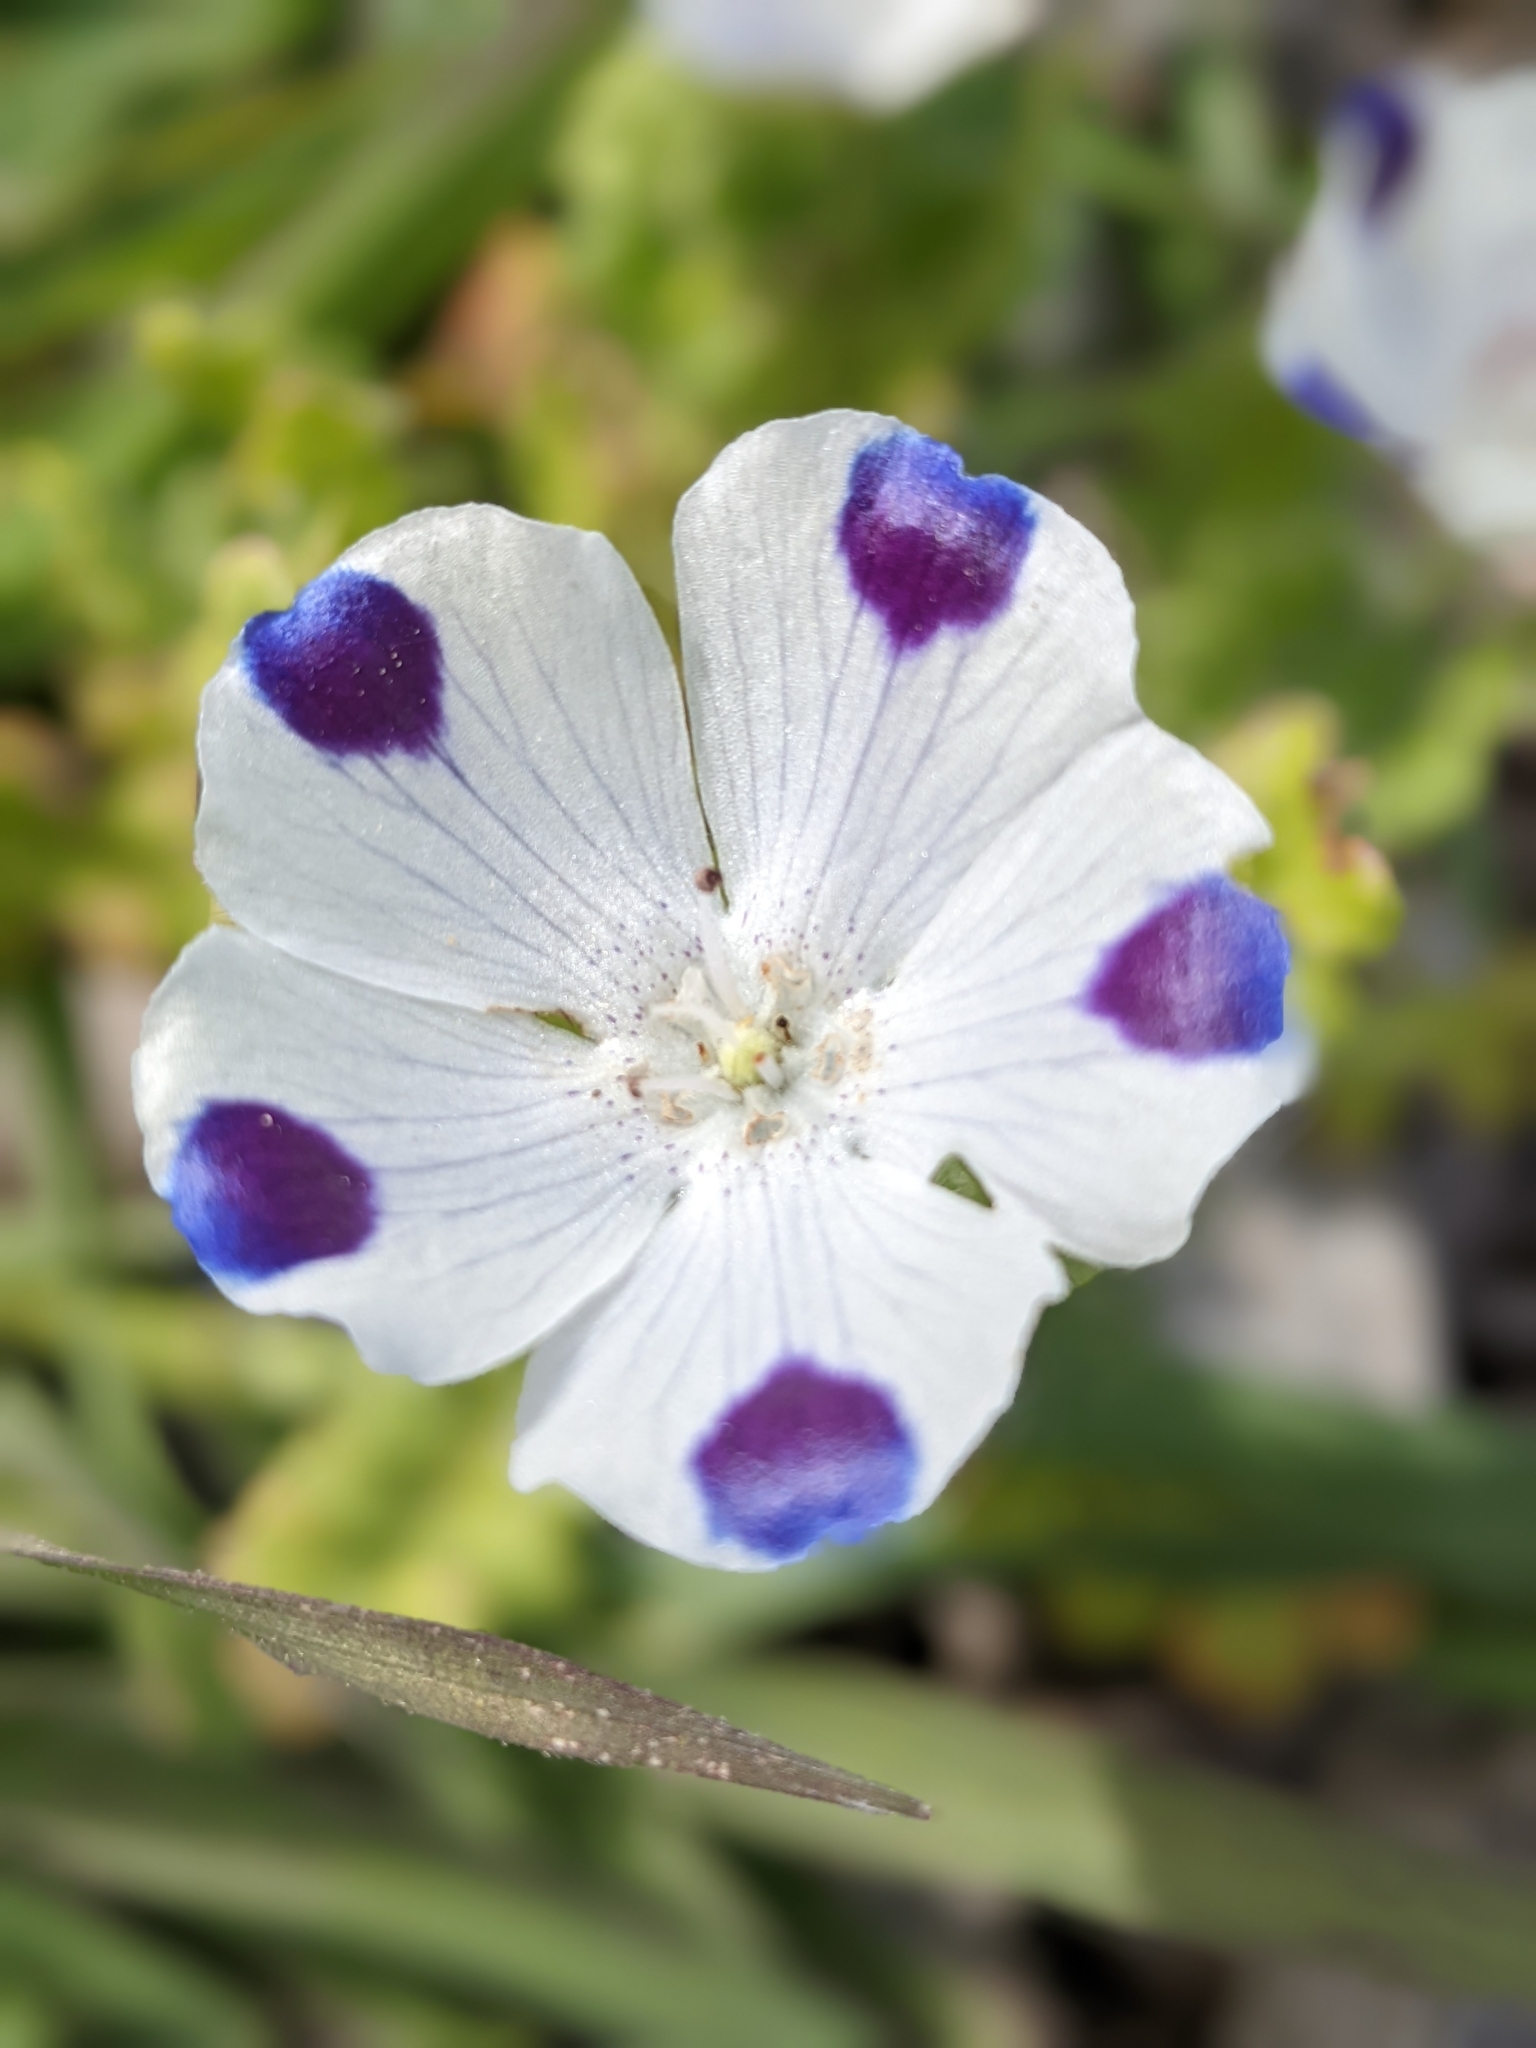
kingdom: Plantae
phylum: Tracheophyta
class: Magnoliopsida
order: Boraginales
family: Hydrophyllaceae
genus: Nemophila
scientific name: Nemophila maculata
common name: Fivespot
